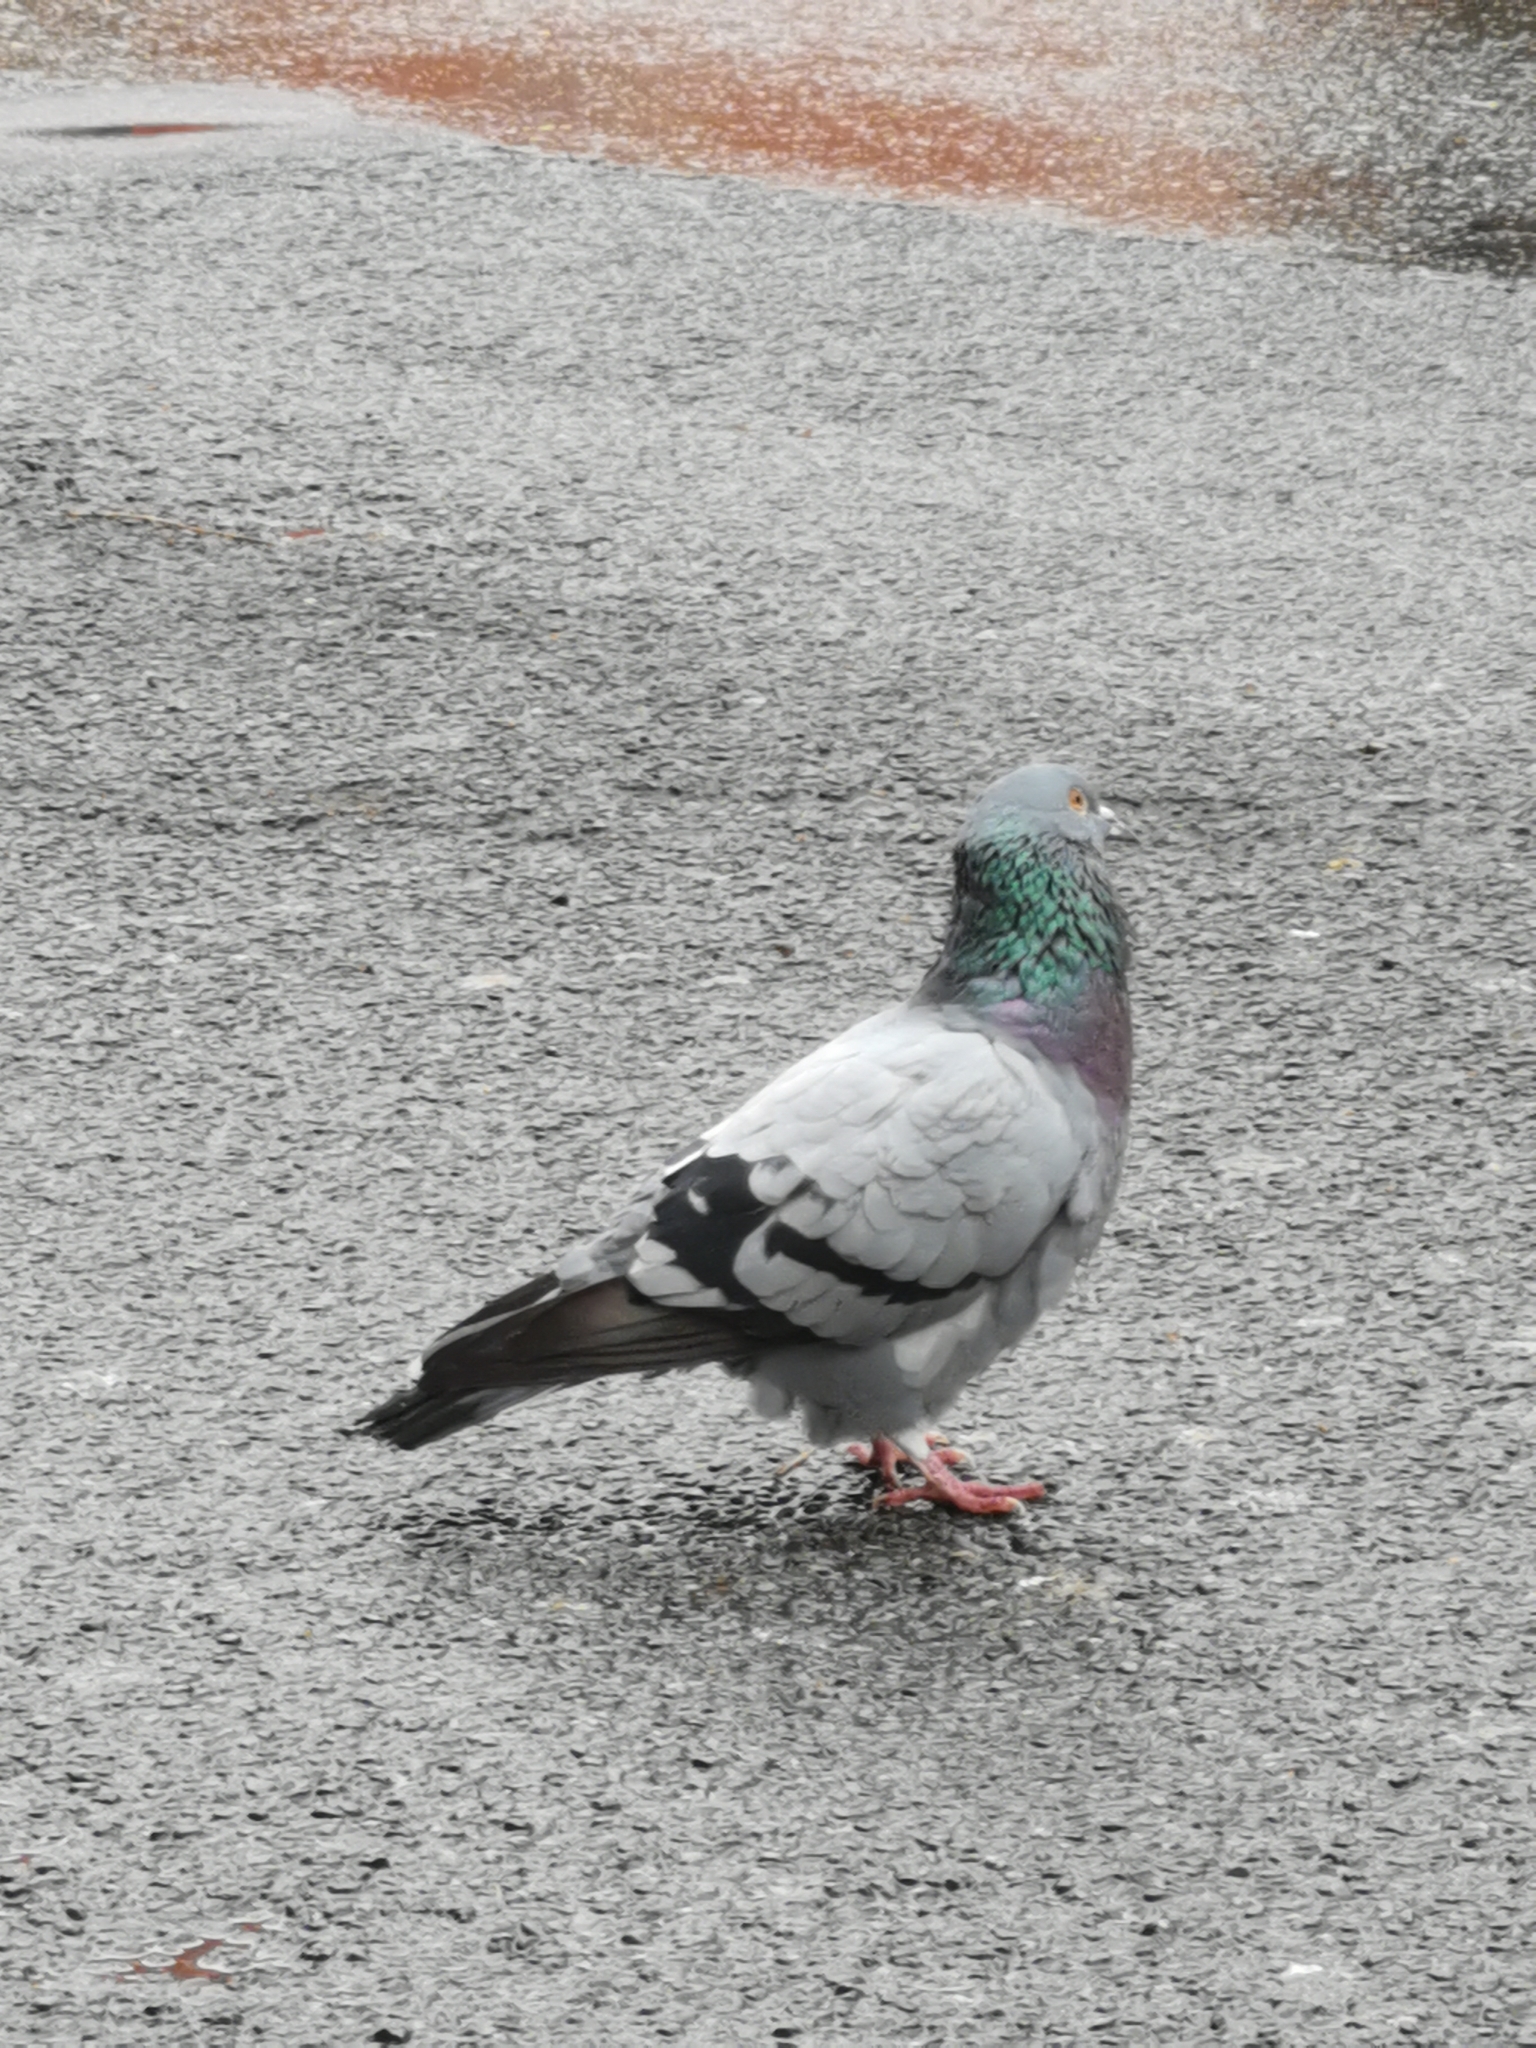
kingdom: Animalia
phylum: Chordata
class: Aves
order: Columbiformes
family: Columbidae
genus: Columba
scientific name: Columba livia
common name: Rock pigeon
